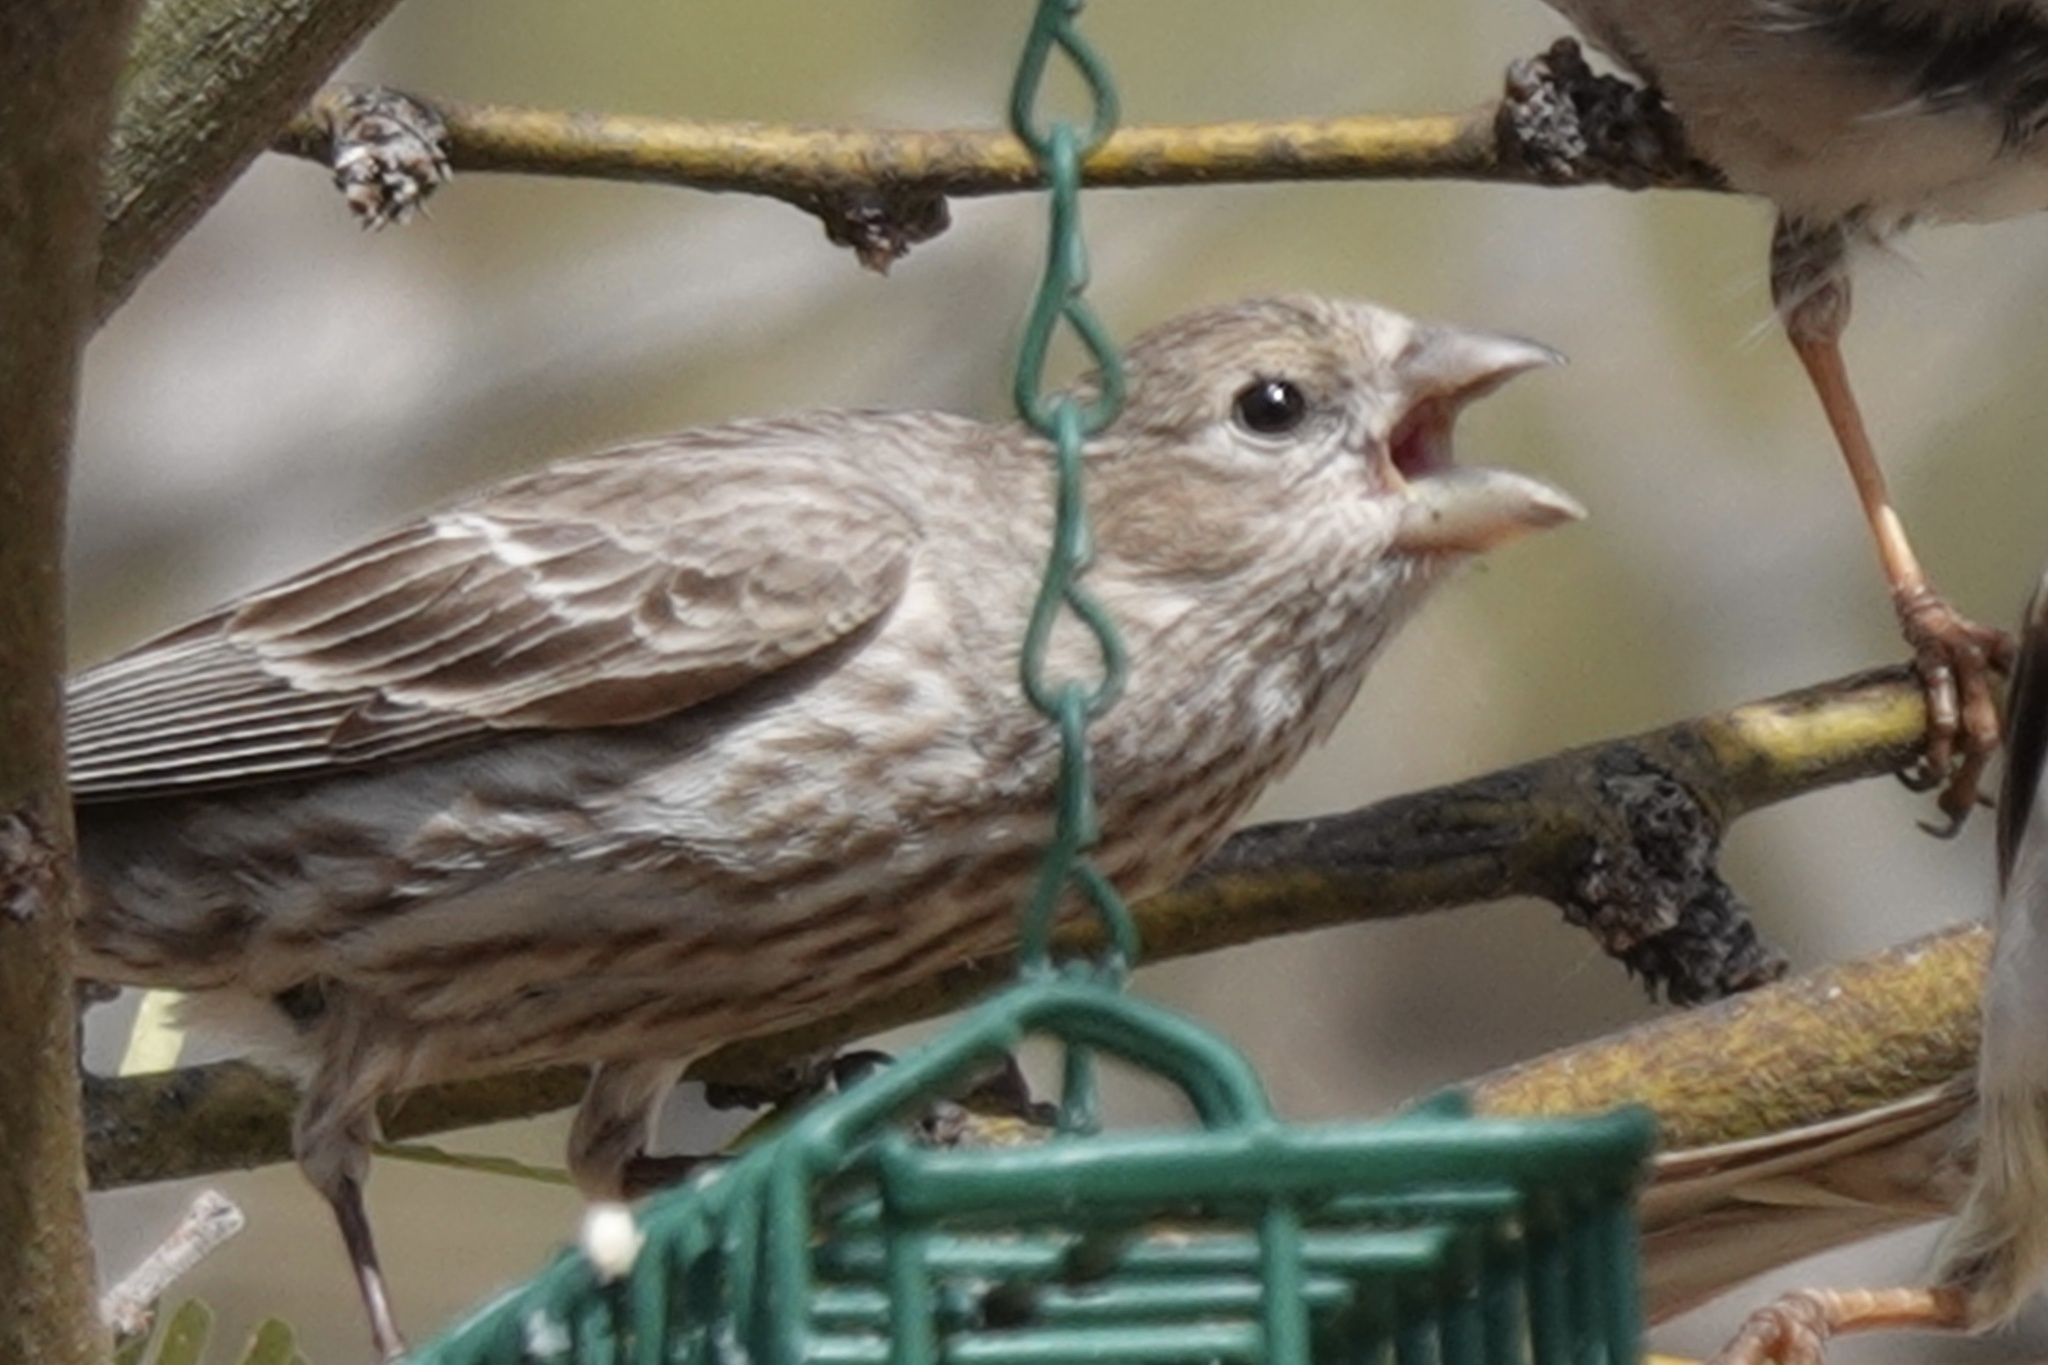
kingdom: Animalia
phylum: Chordata
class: Aves
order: Passeriformes
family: Fringillidae
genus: Haemorhous
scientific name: Haemorhous mexicanus
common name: House finch
